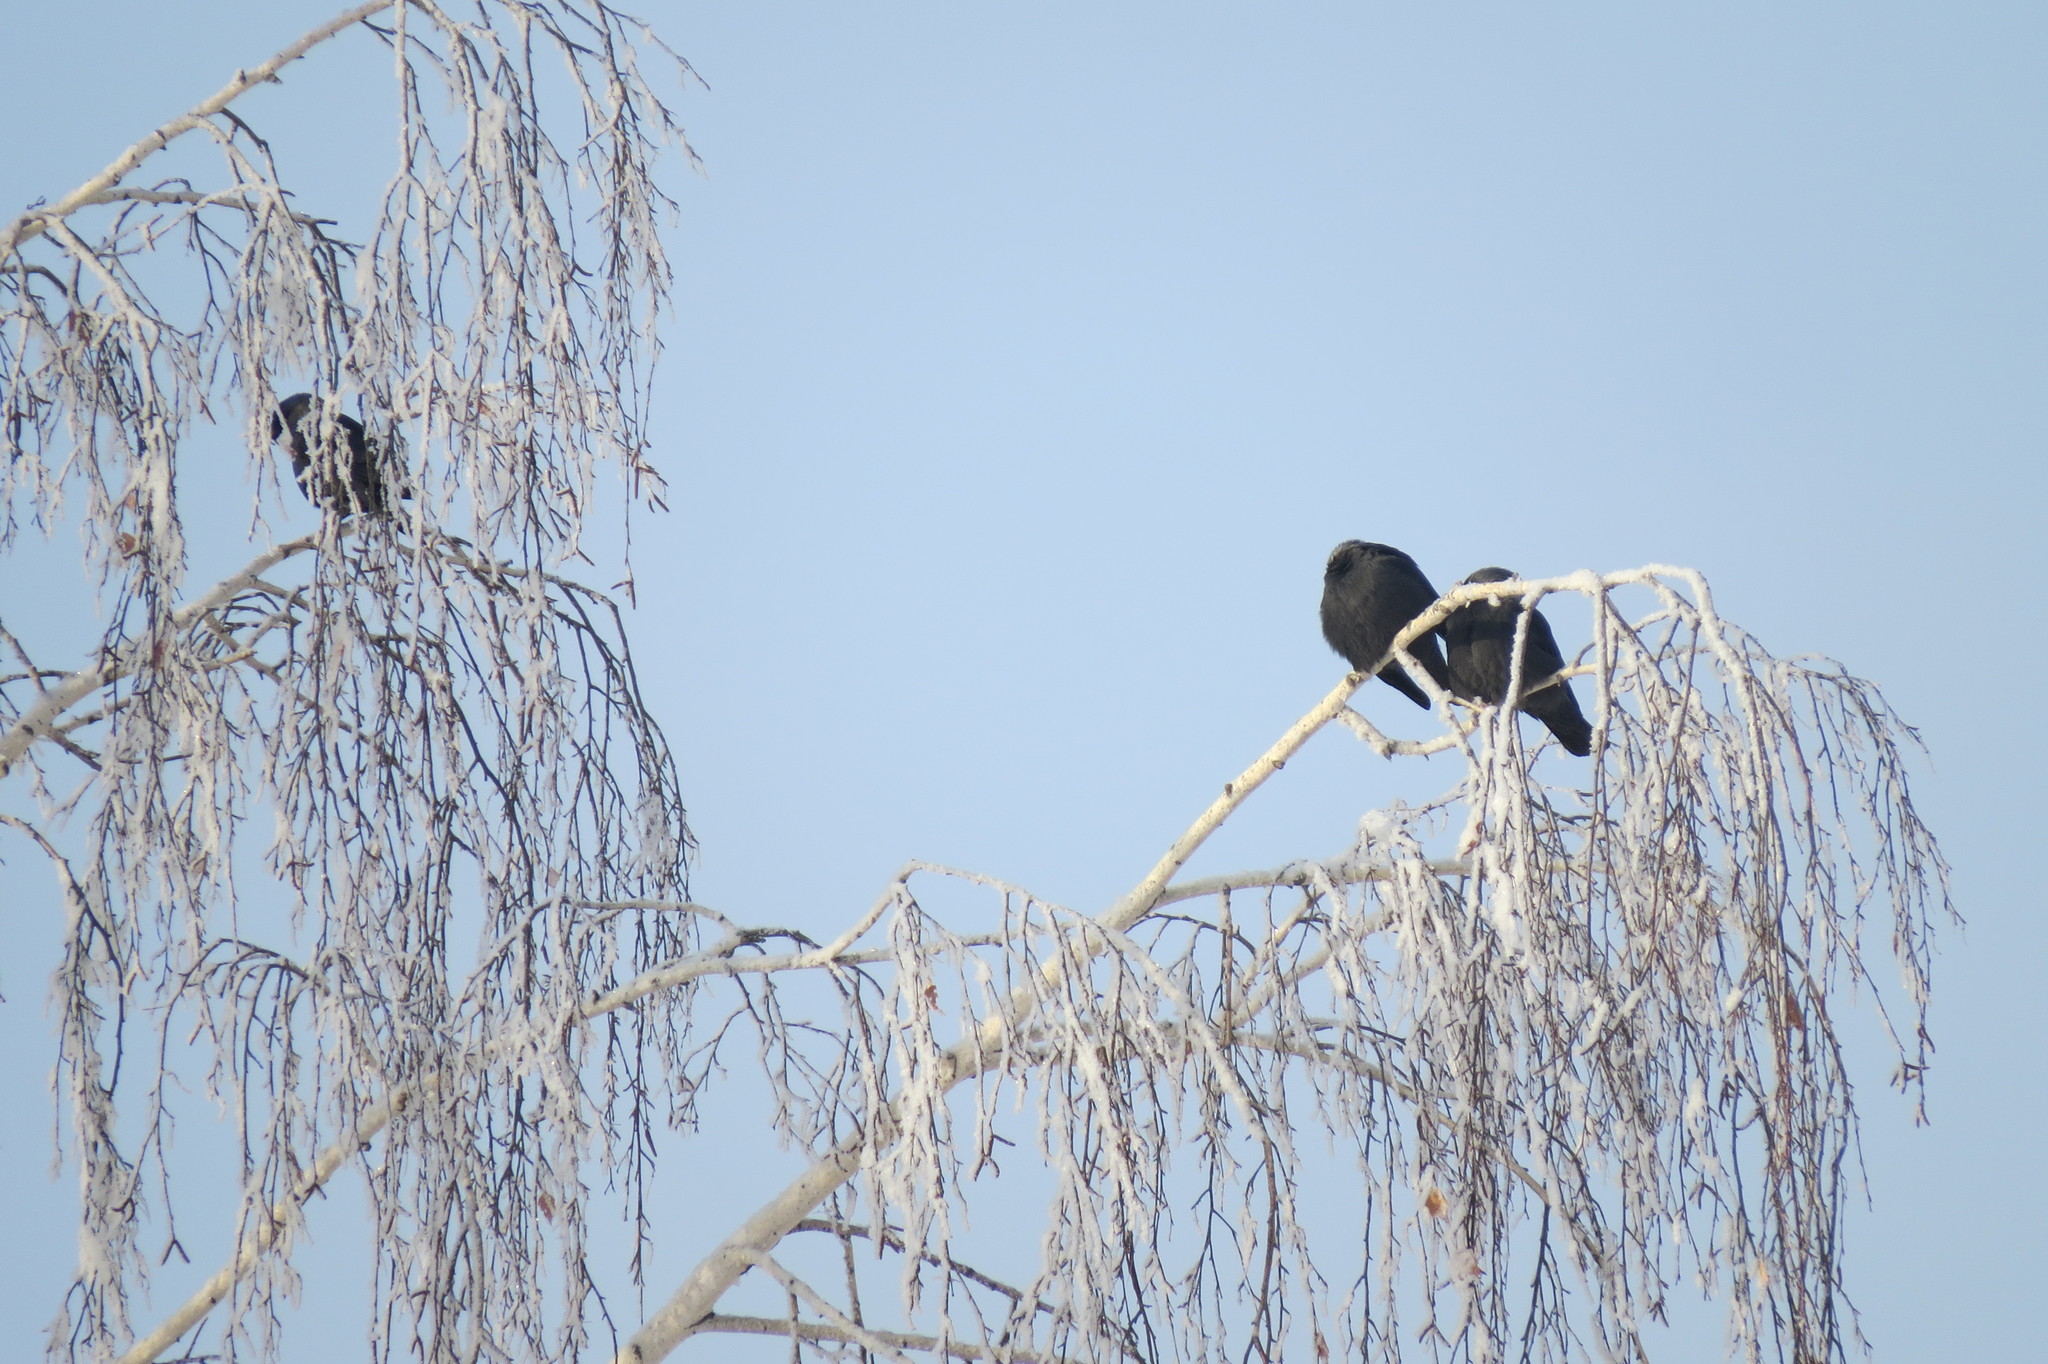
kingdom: Animalia
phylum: Chordata
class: Aves
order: Passeriformes
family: Corvidae
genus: Coloeus
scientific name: Coloeus monedula
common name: Western jackdaw
